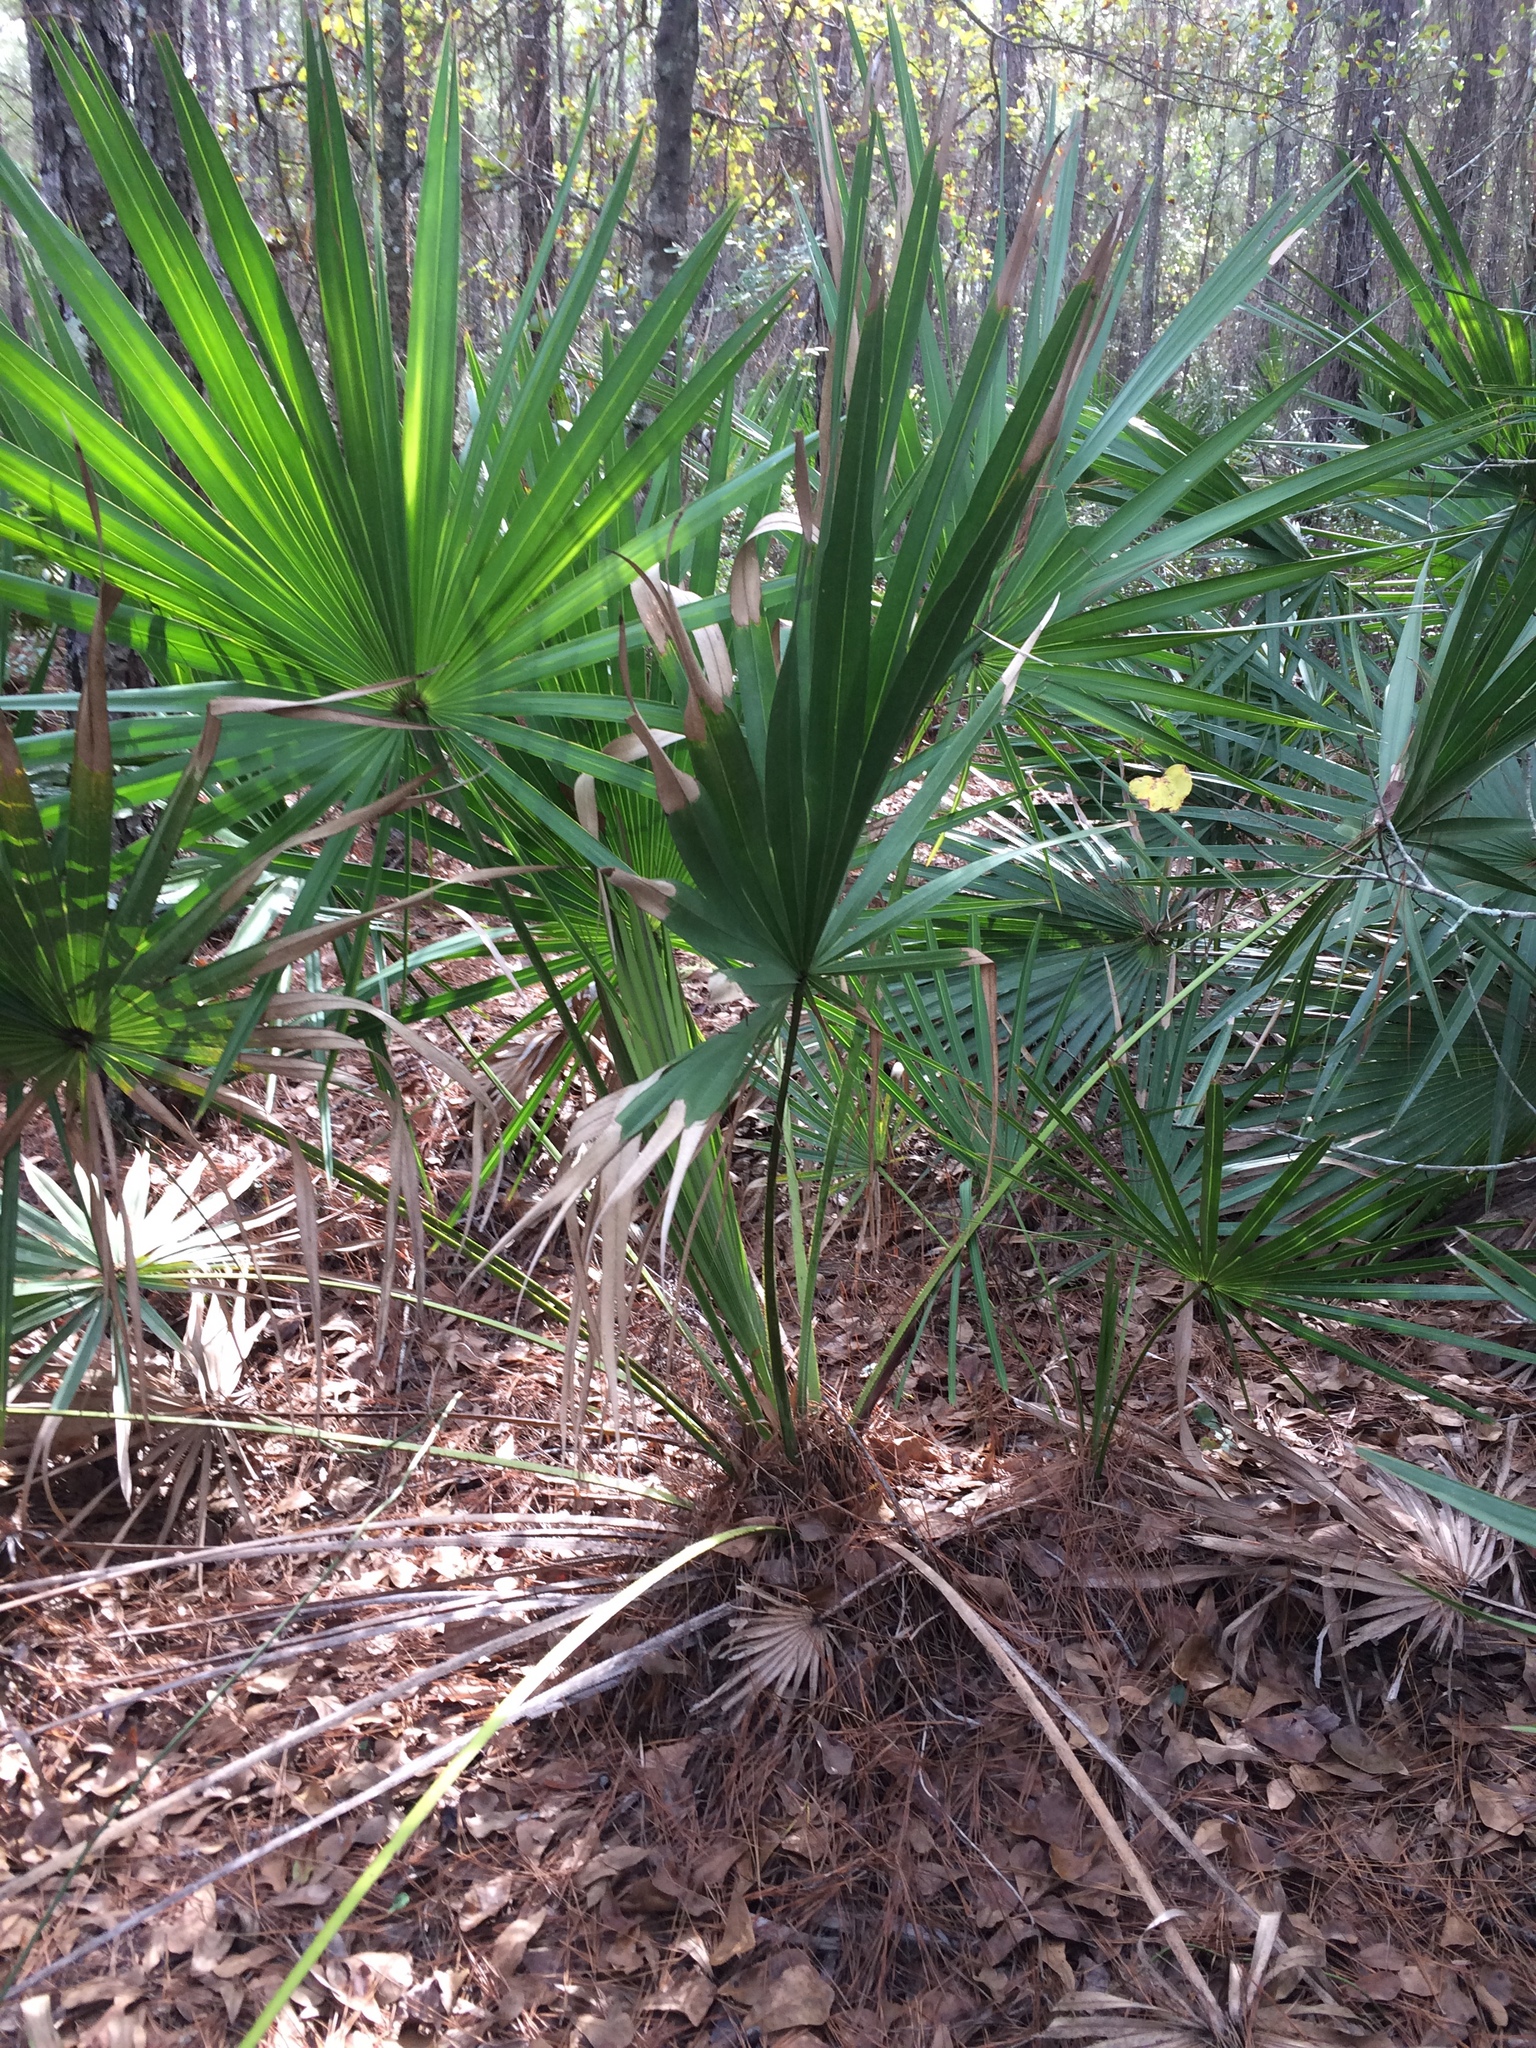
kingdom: Plantae
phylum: Tracheophyta
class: Liliopsida
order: Arecales
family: Arecaceae
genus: Serenoa
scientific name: Serenoa repens
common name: Saw-palmetto
